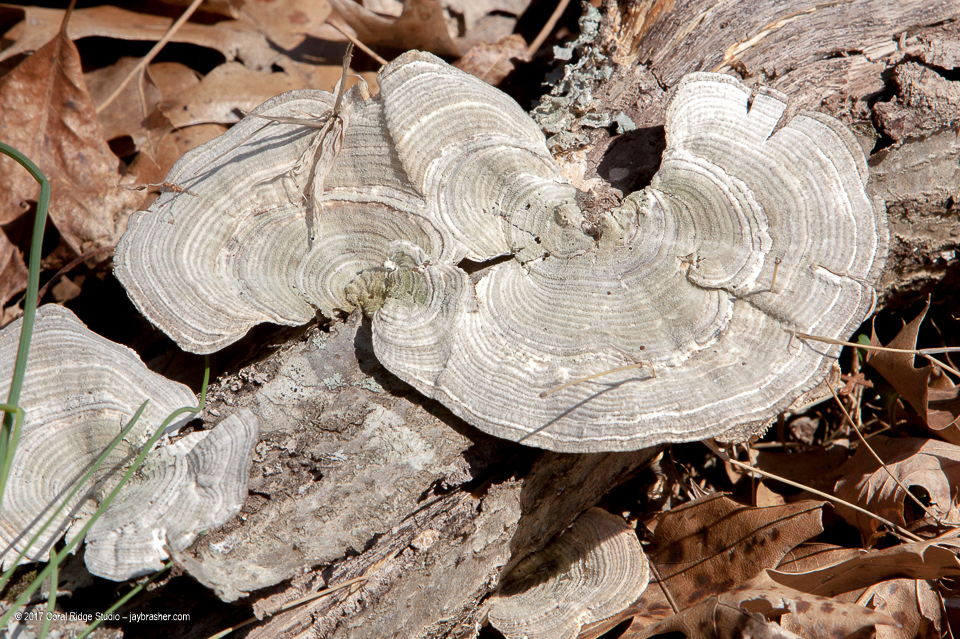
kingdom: Fungi
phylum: Basidiomycota
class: Agaricomycetes
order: Polyporales
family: Polyporaceae
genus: Lenzites
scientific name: Lenzites betulinus
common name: Birch mazegill
